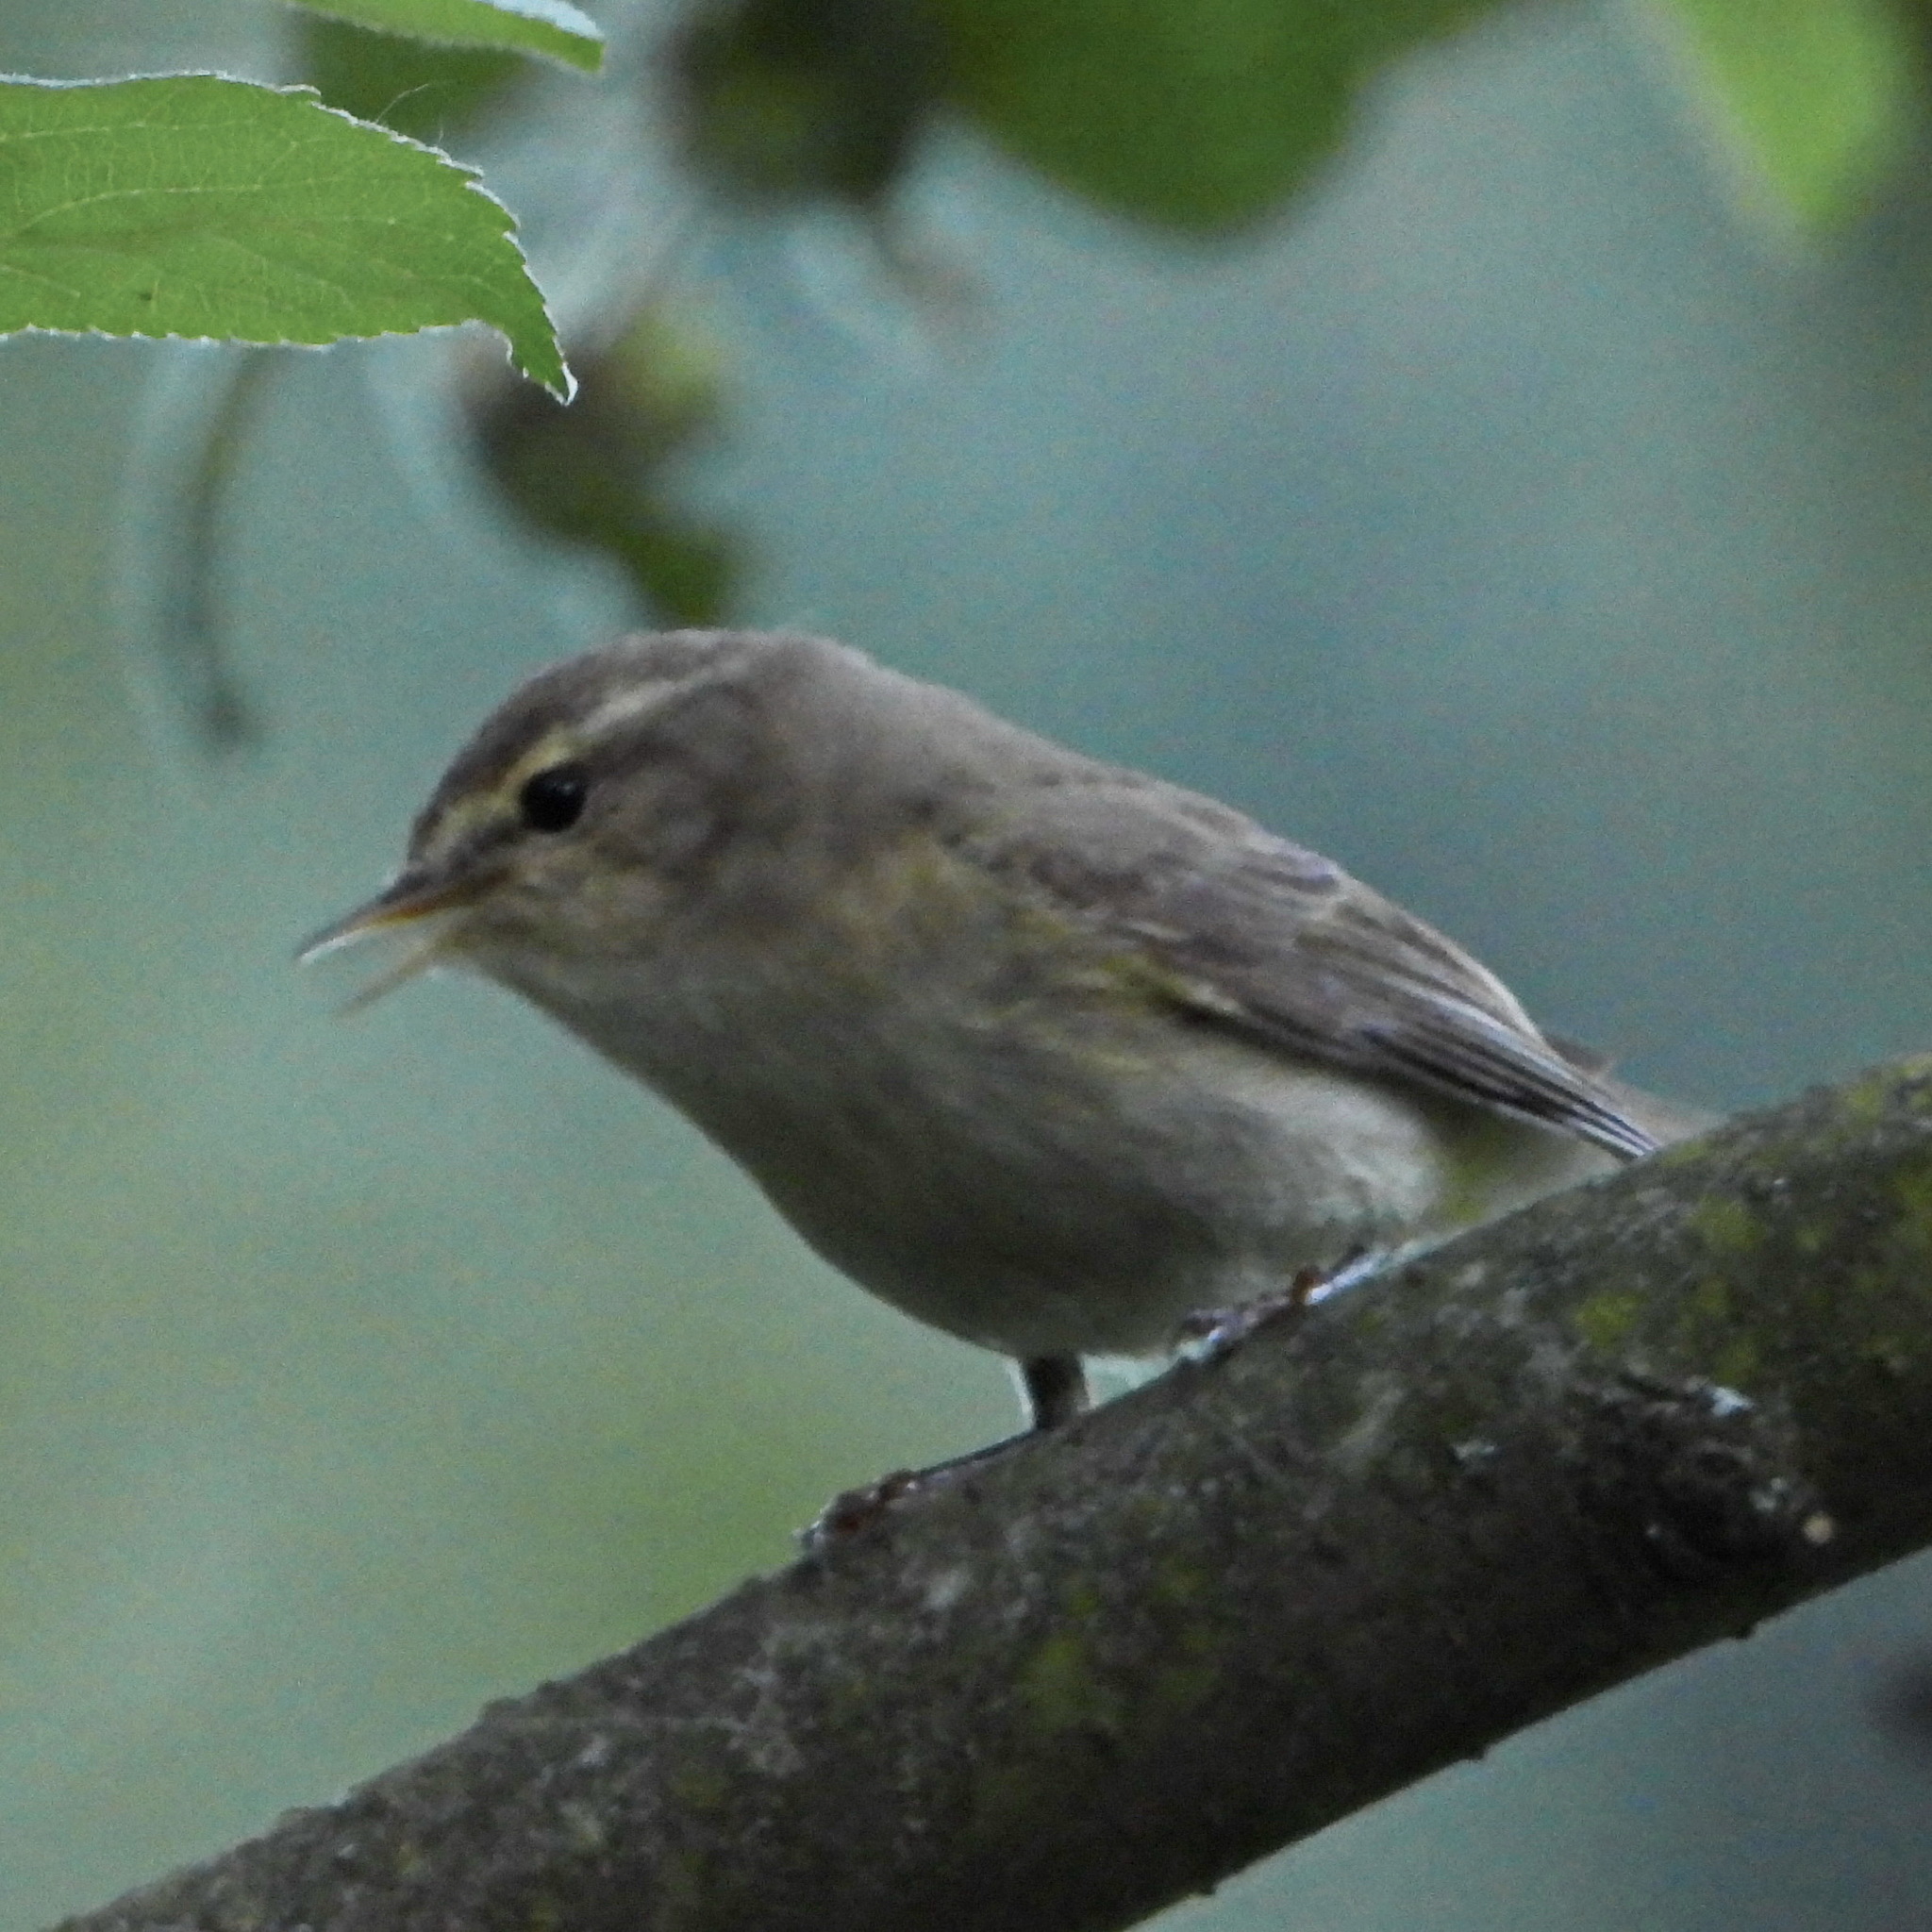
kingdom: Animalia
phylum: Chordata
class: Aves
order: Passeriformes
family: Phylloscopidae
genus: Phylloscopus
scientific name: Phylloscopus collybita
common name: Common chiffchaff
